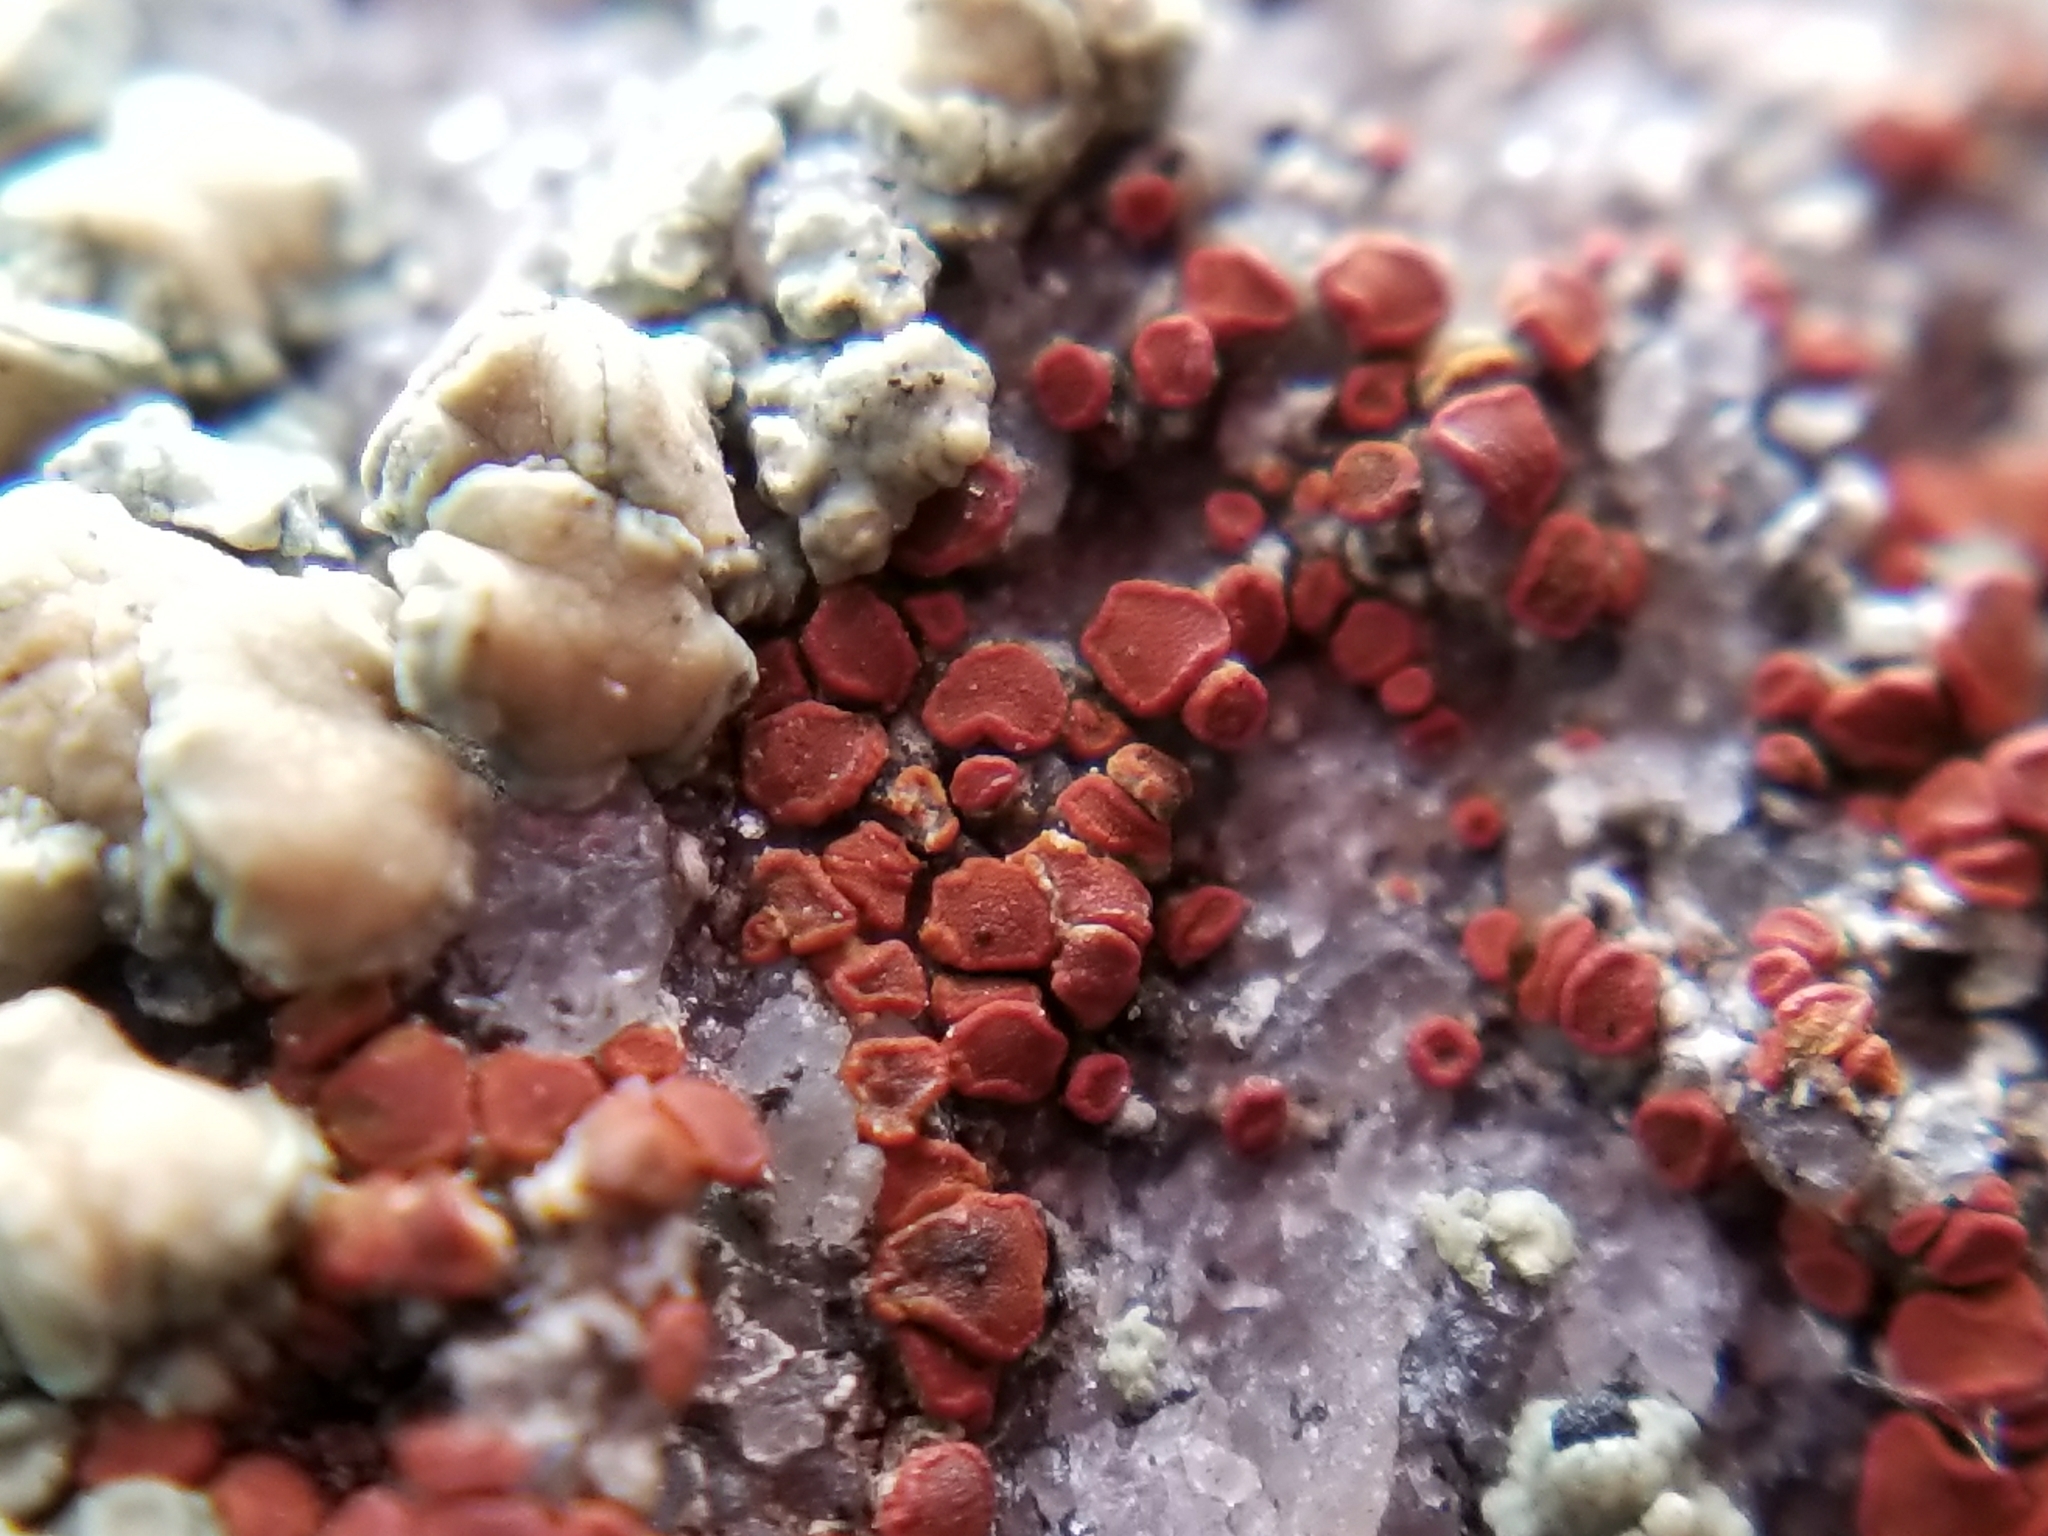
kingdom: Fungi
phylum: Ascomycota
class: Lecanoromycetes
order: Teloschistales
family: Teloschistaceae
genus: Rufoplaca
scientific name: Rufoplaca arenaria
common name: Granite firedot lichen
